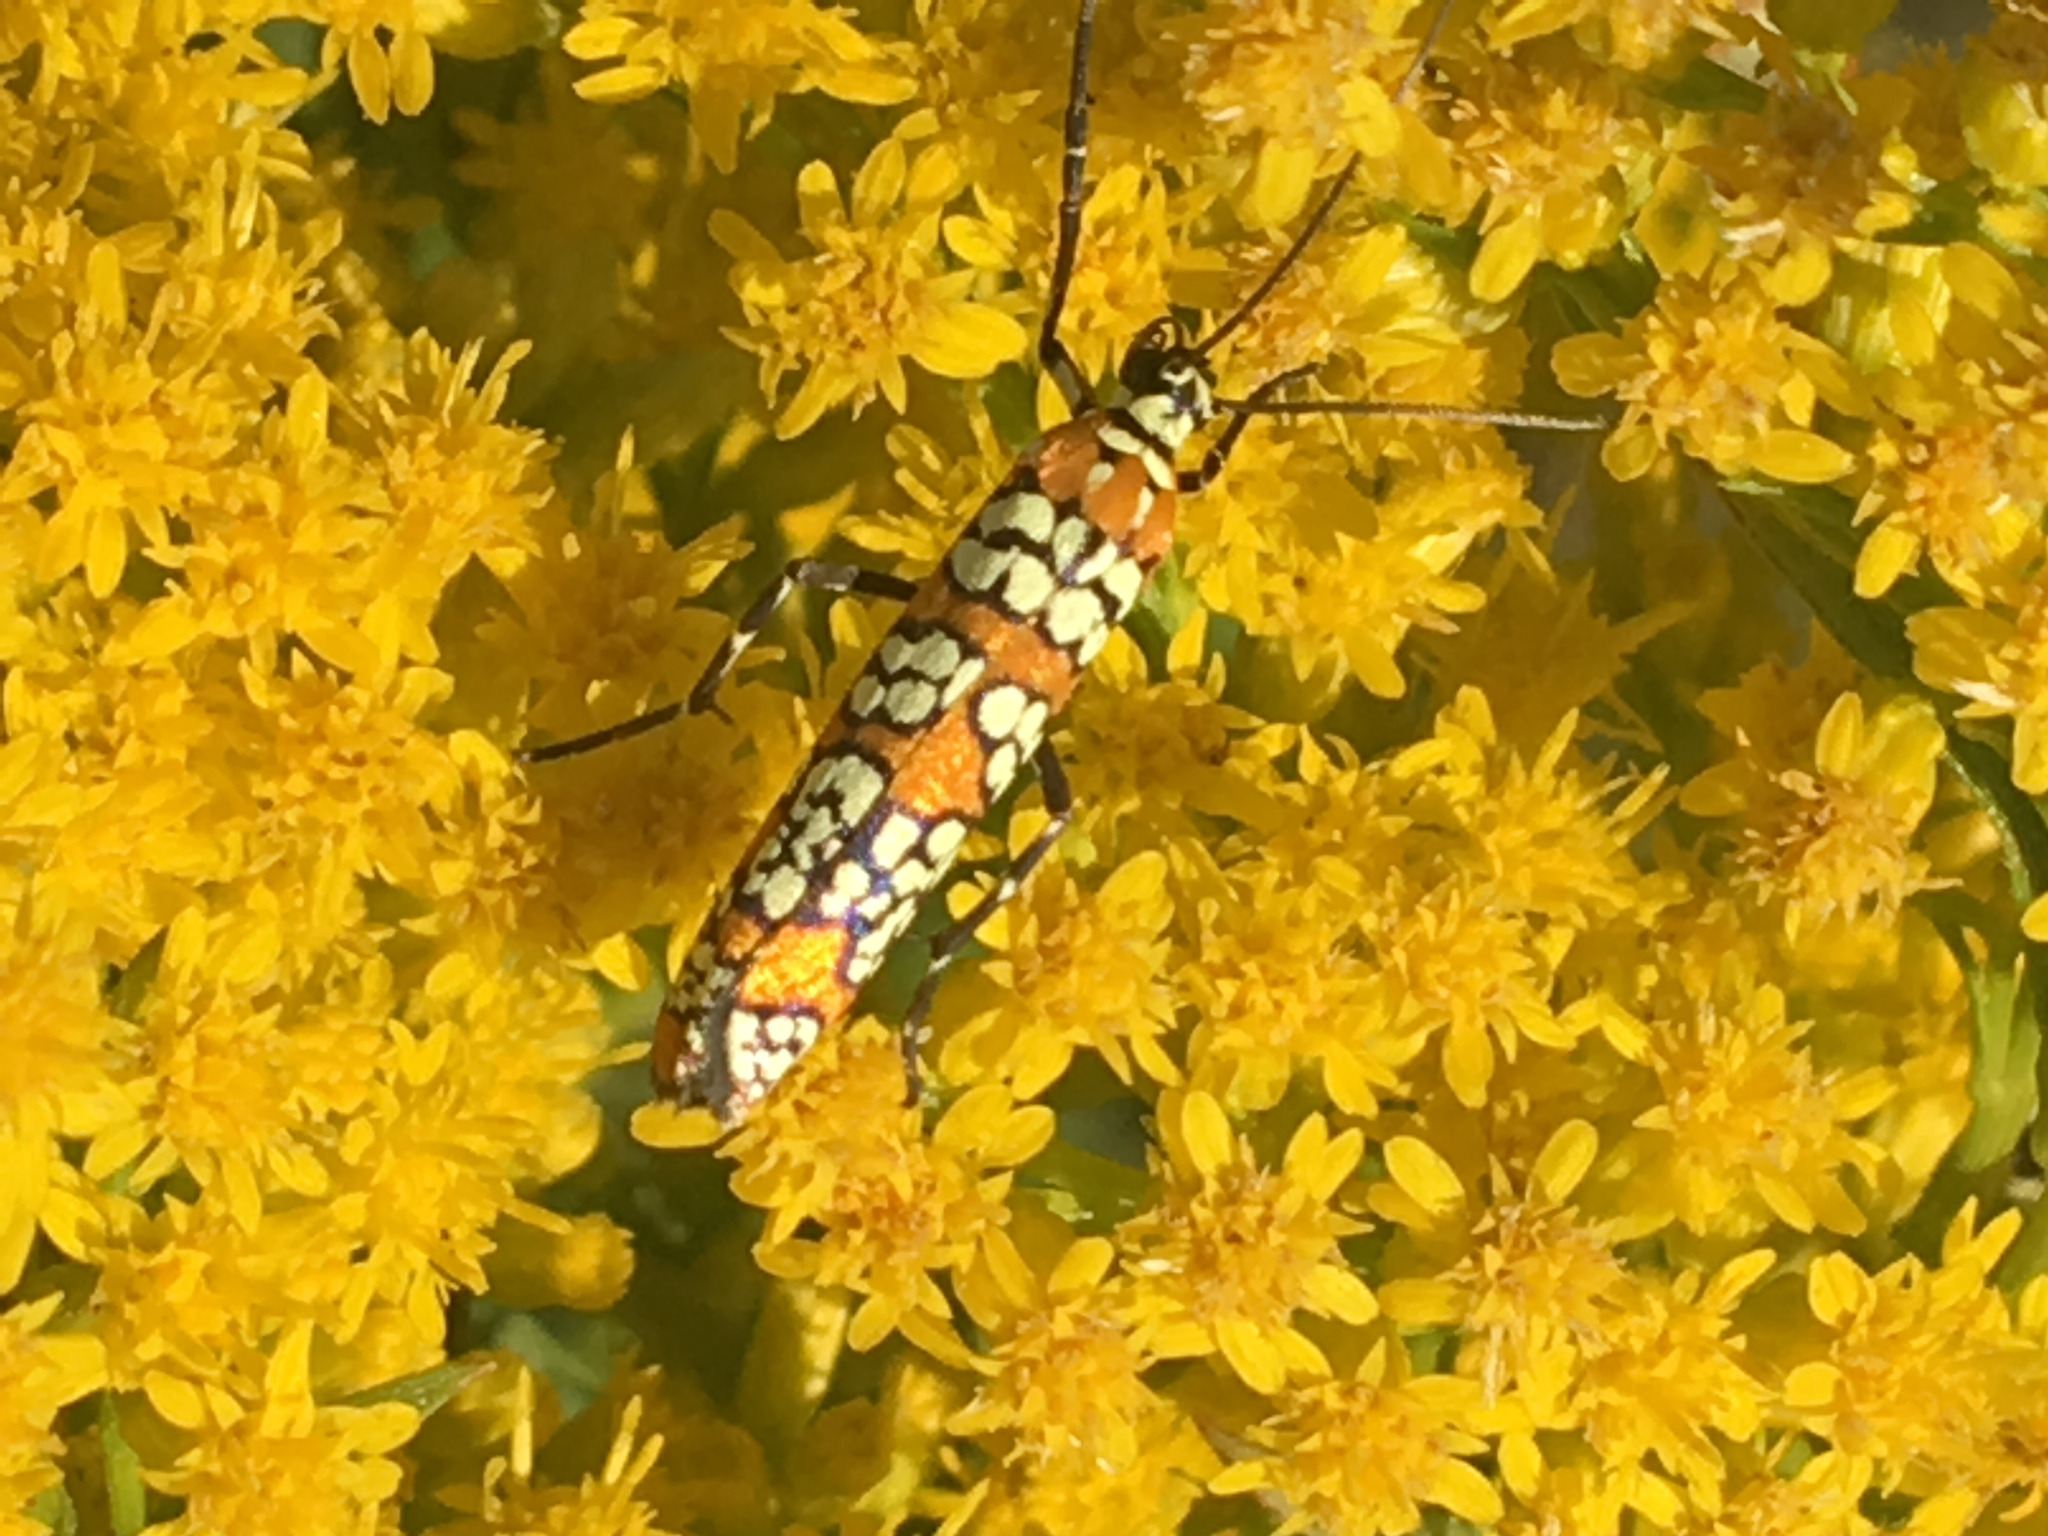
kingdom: Animalia
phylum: Arthropoda
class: Insecta
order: Lepidoptera
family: Attevidae
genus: Atteva
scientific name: Atteva punctella
